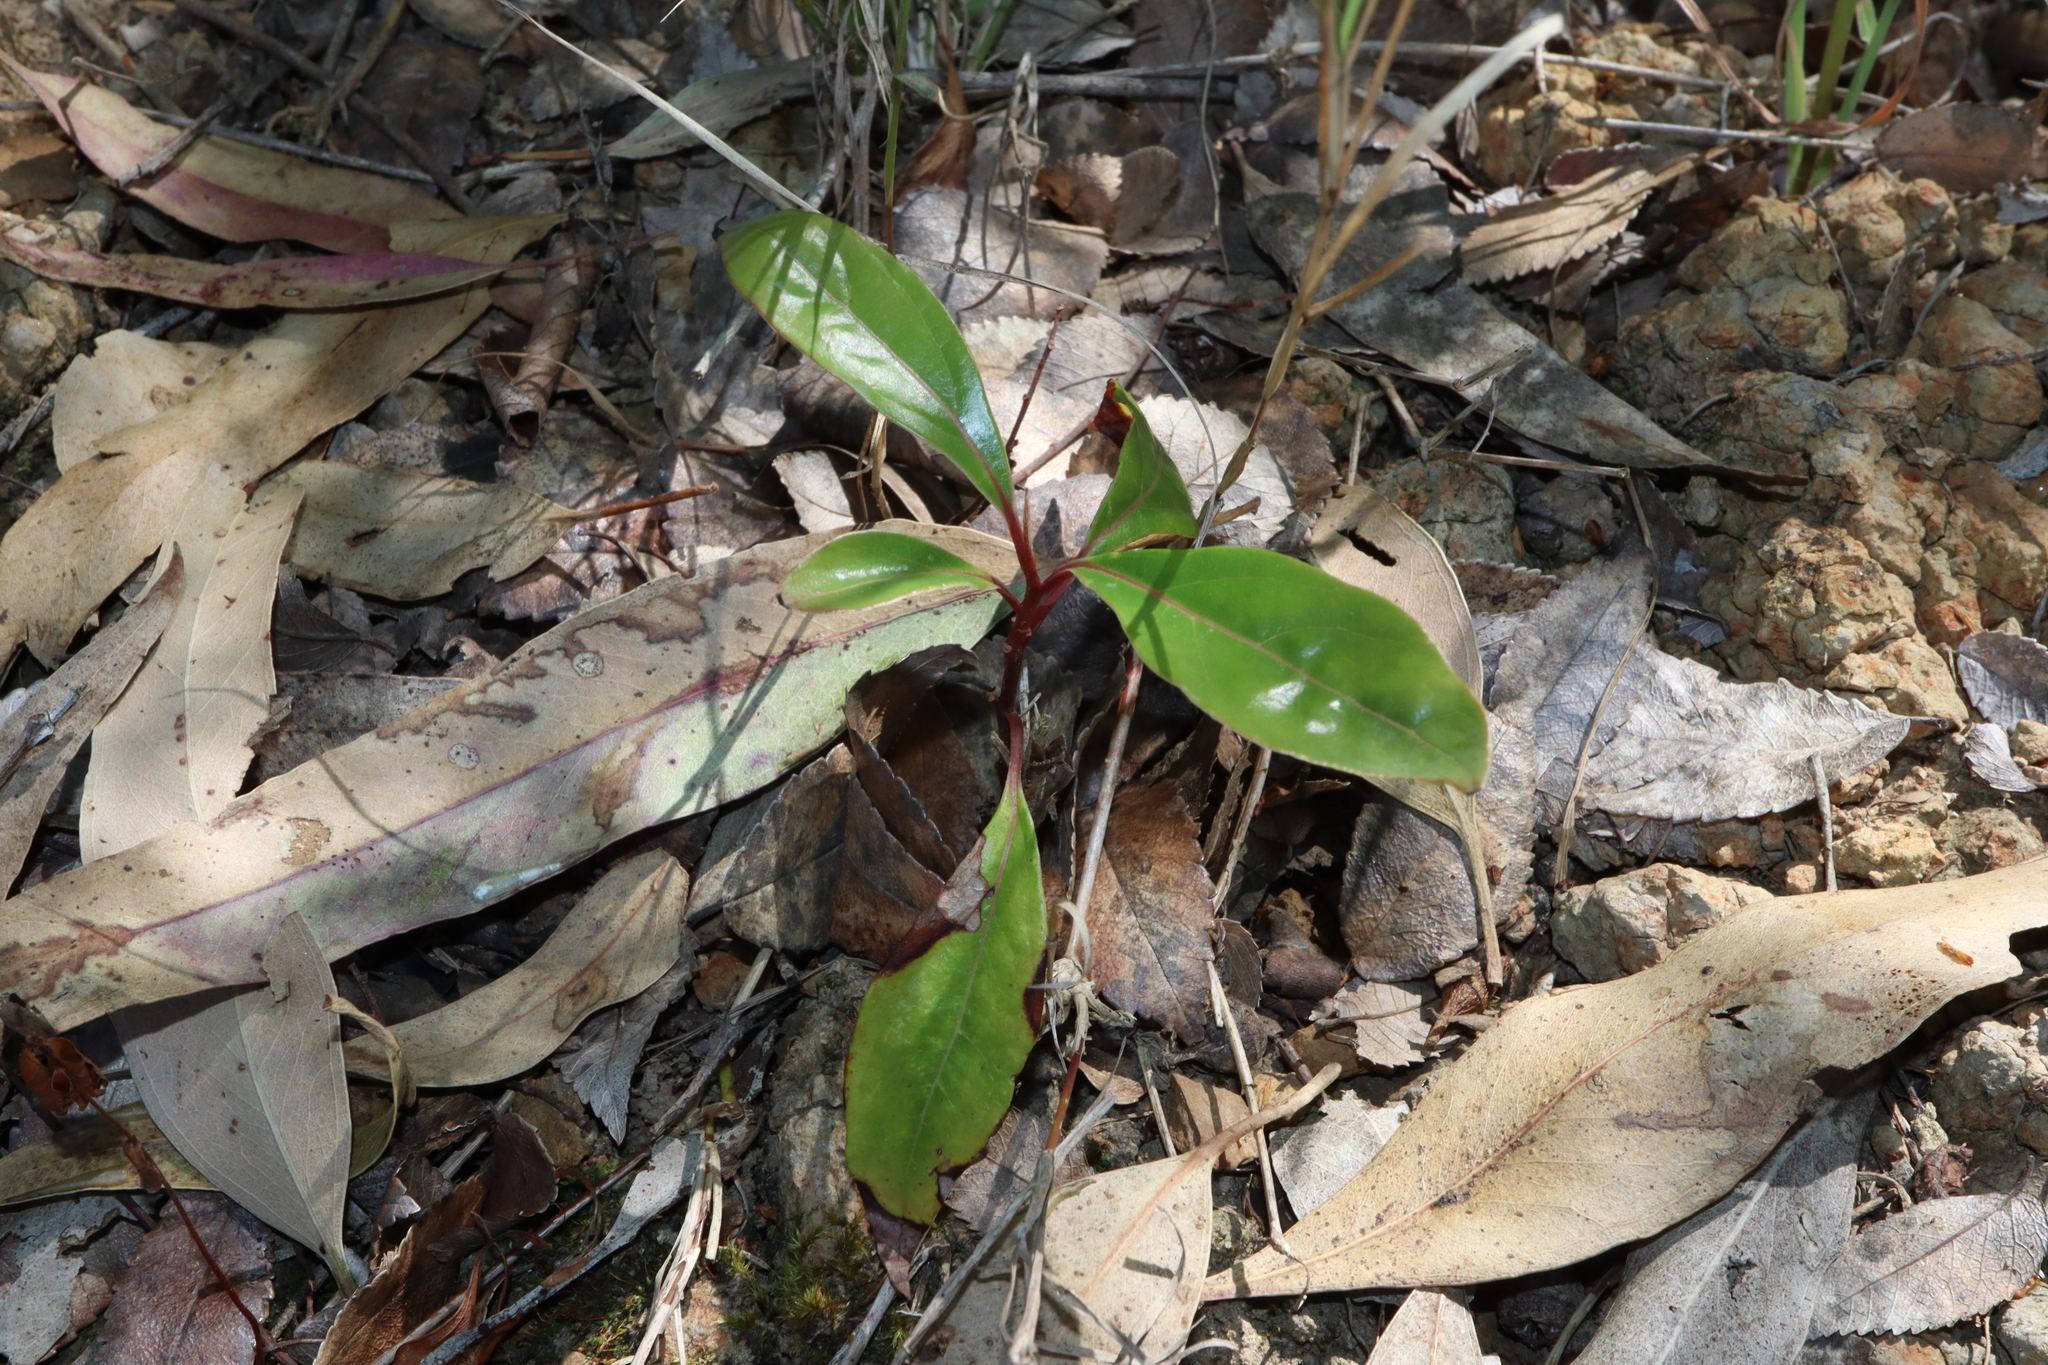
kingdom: Plantae
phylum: Tracheophyta
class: Magnoliopsida
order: Laurales
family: Lauraceae
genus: Cinnamomum
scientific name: Cinnamomum camphora
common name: Camphortree
